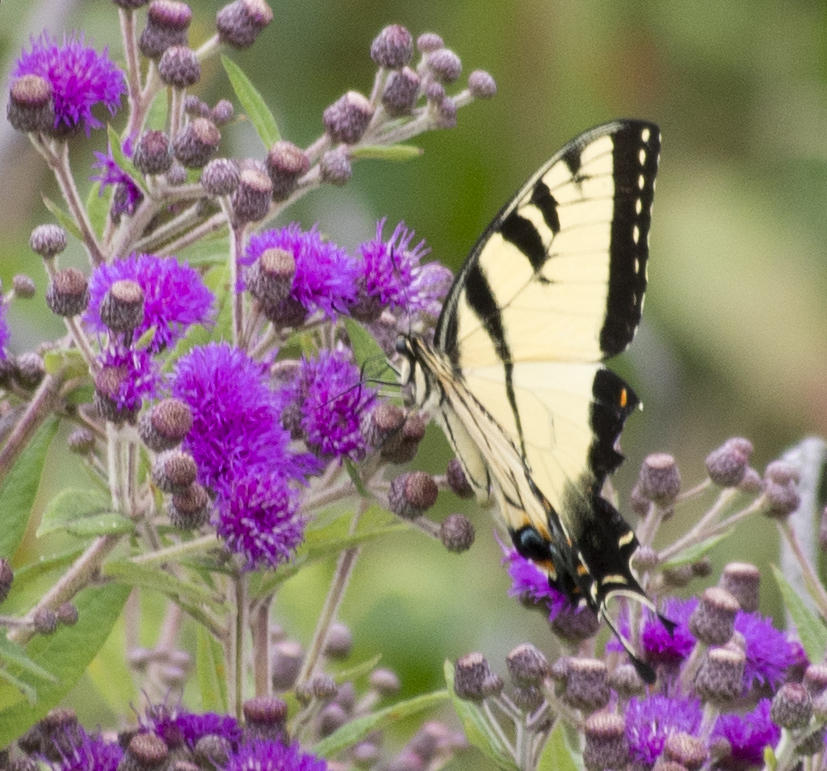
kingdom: Animalia
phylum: Arthropoda
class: Insecta
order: Lepidoptera
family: Papilionidae
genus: Papilio
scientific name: Papilio glaucus
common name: Tiger swallowtail
